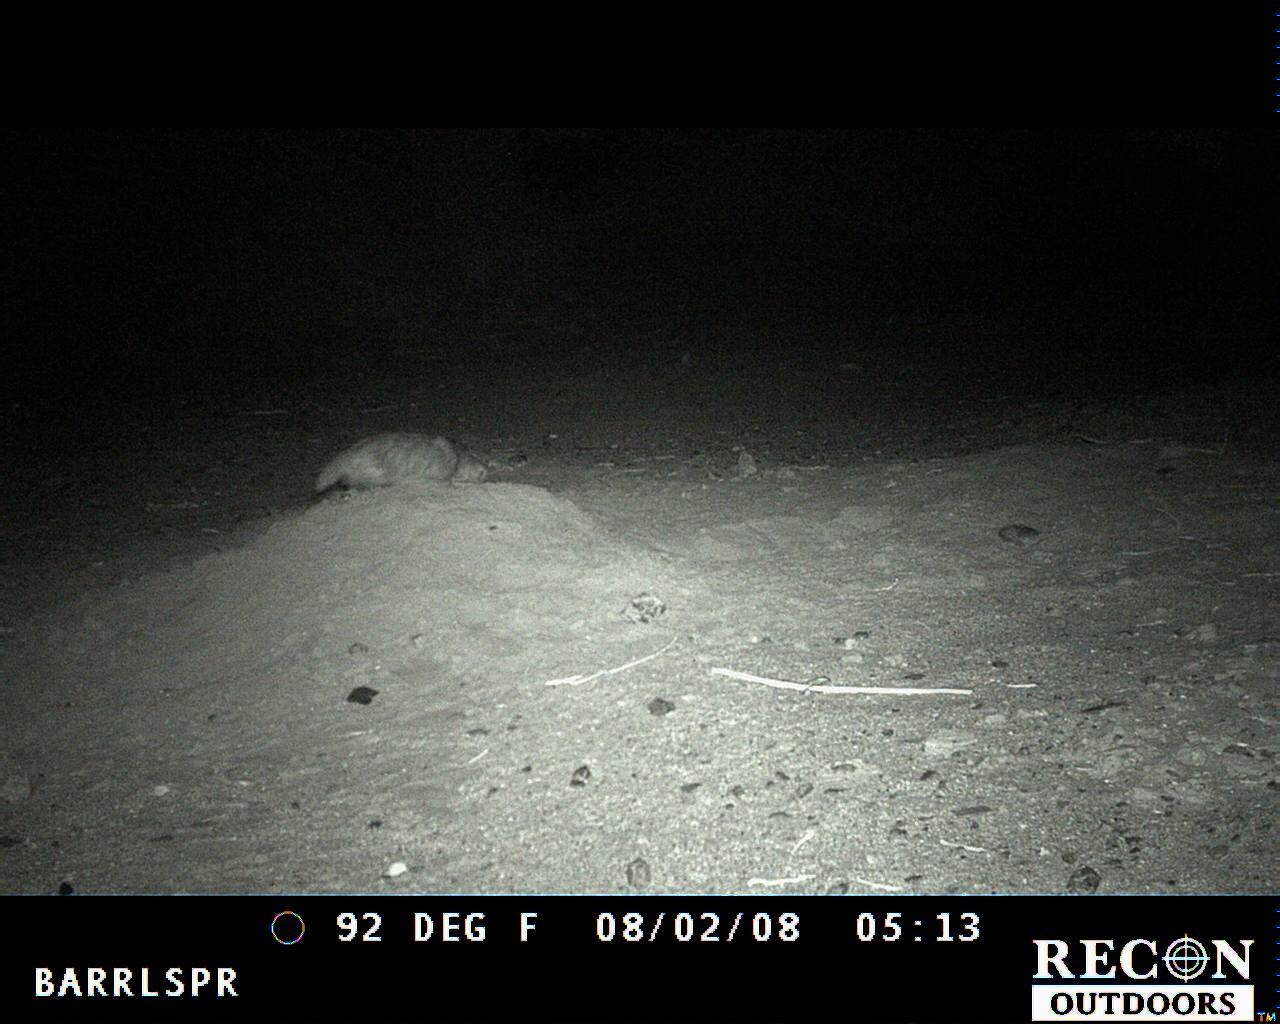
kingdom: Animalia
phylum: Chordata
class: Mammalia
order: Carnivora
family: Mustelidae
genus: Taxidea
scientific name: Taxidea taxus
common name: American badger
